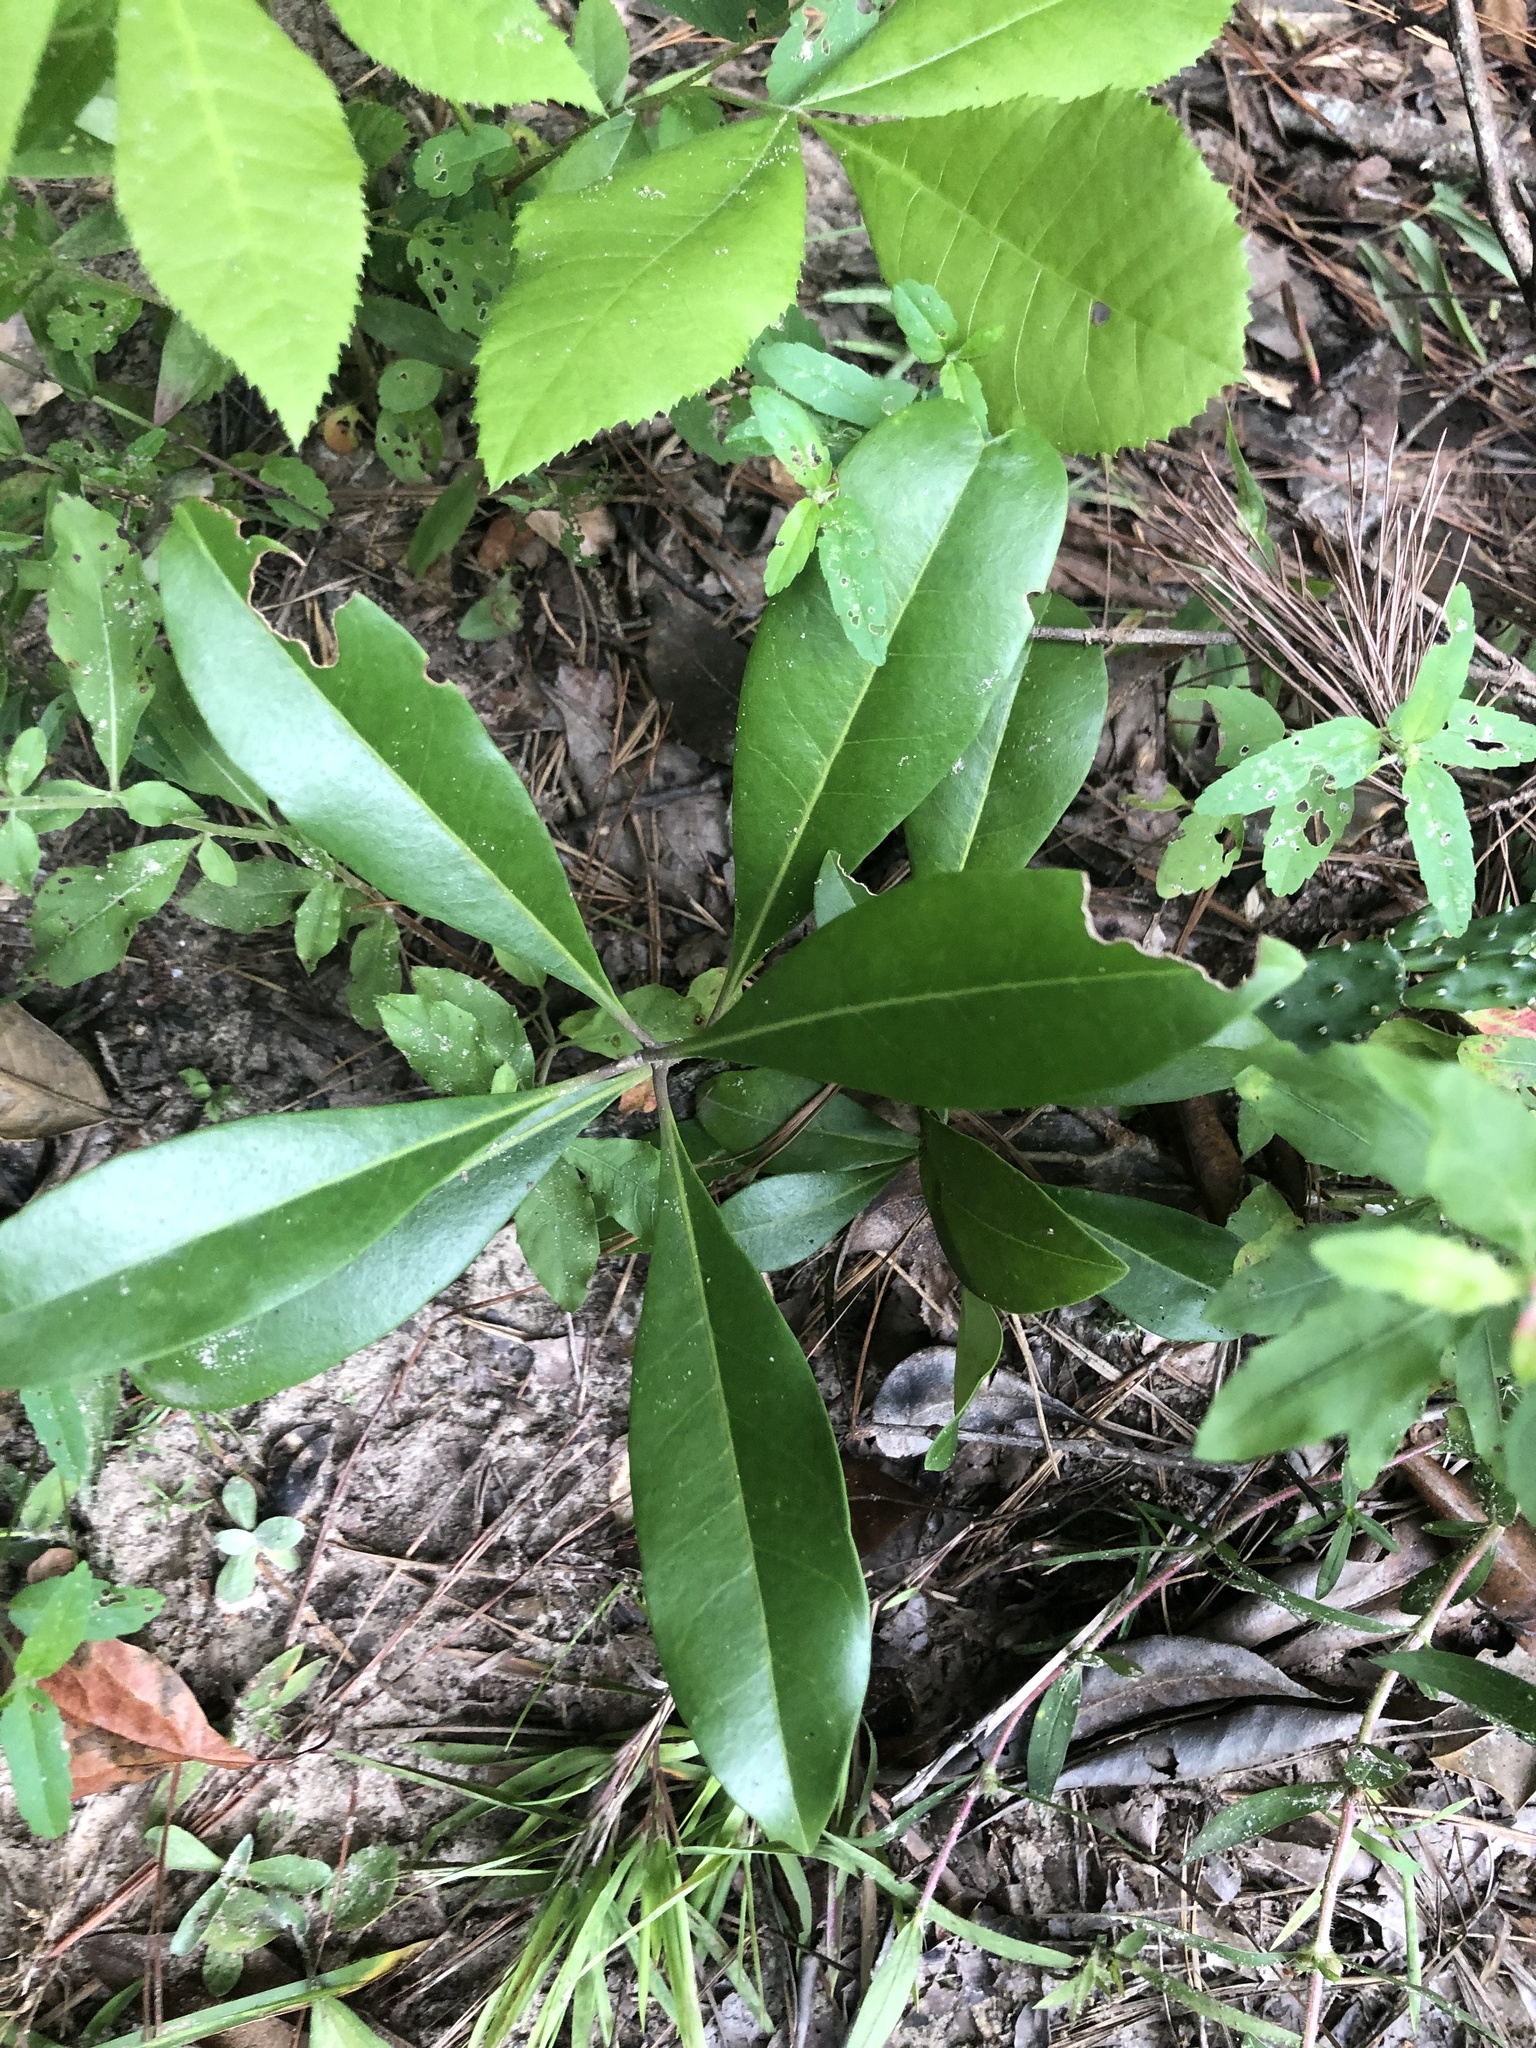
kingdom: Plantae
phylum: Tracheophyta
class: Magnoliopsida
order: Lamiales
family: Oleaceae
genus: Cartrema
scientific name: Cartrema americana
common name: Devilwood
